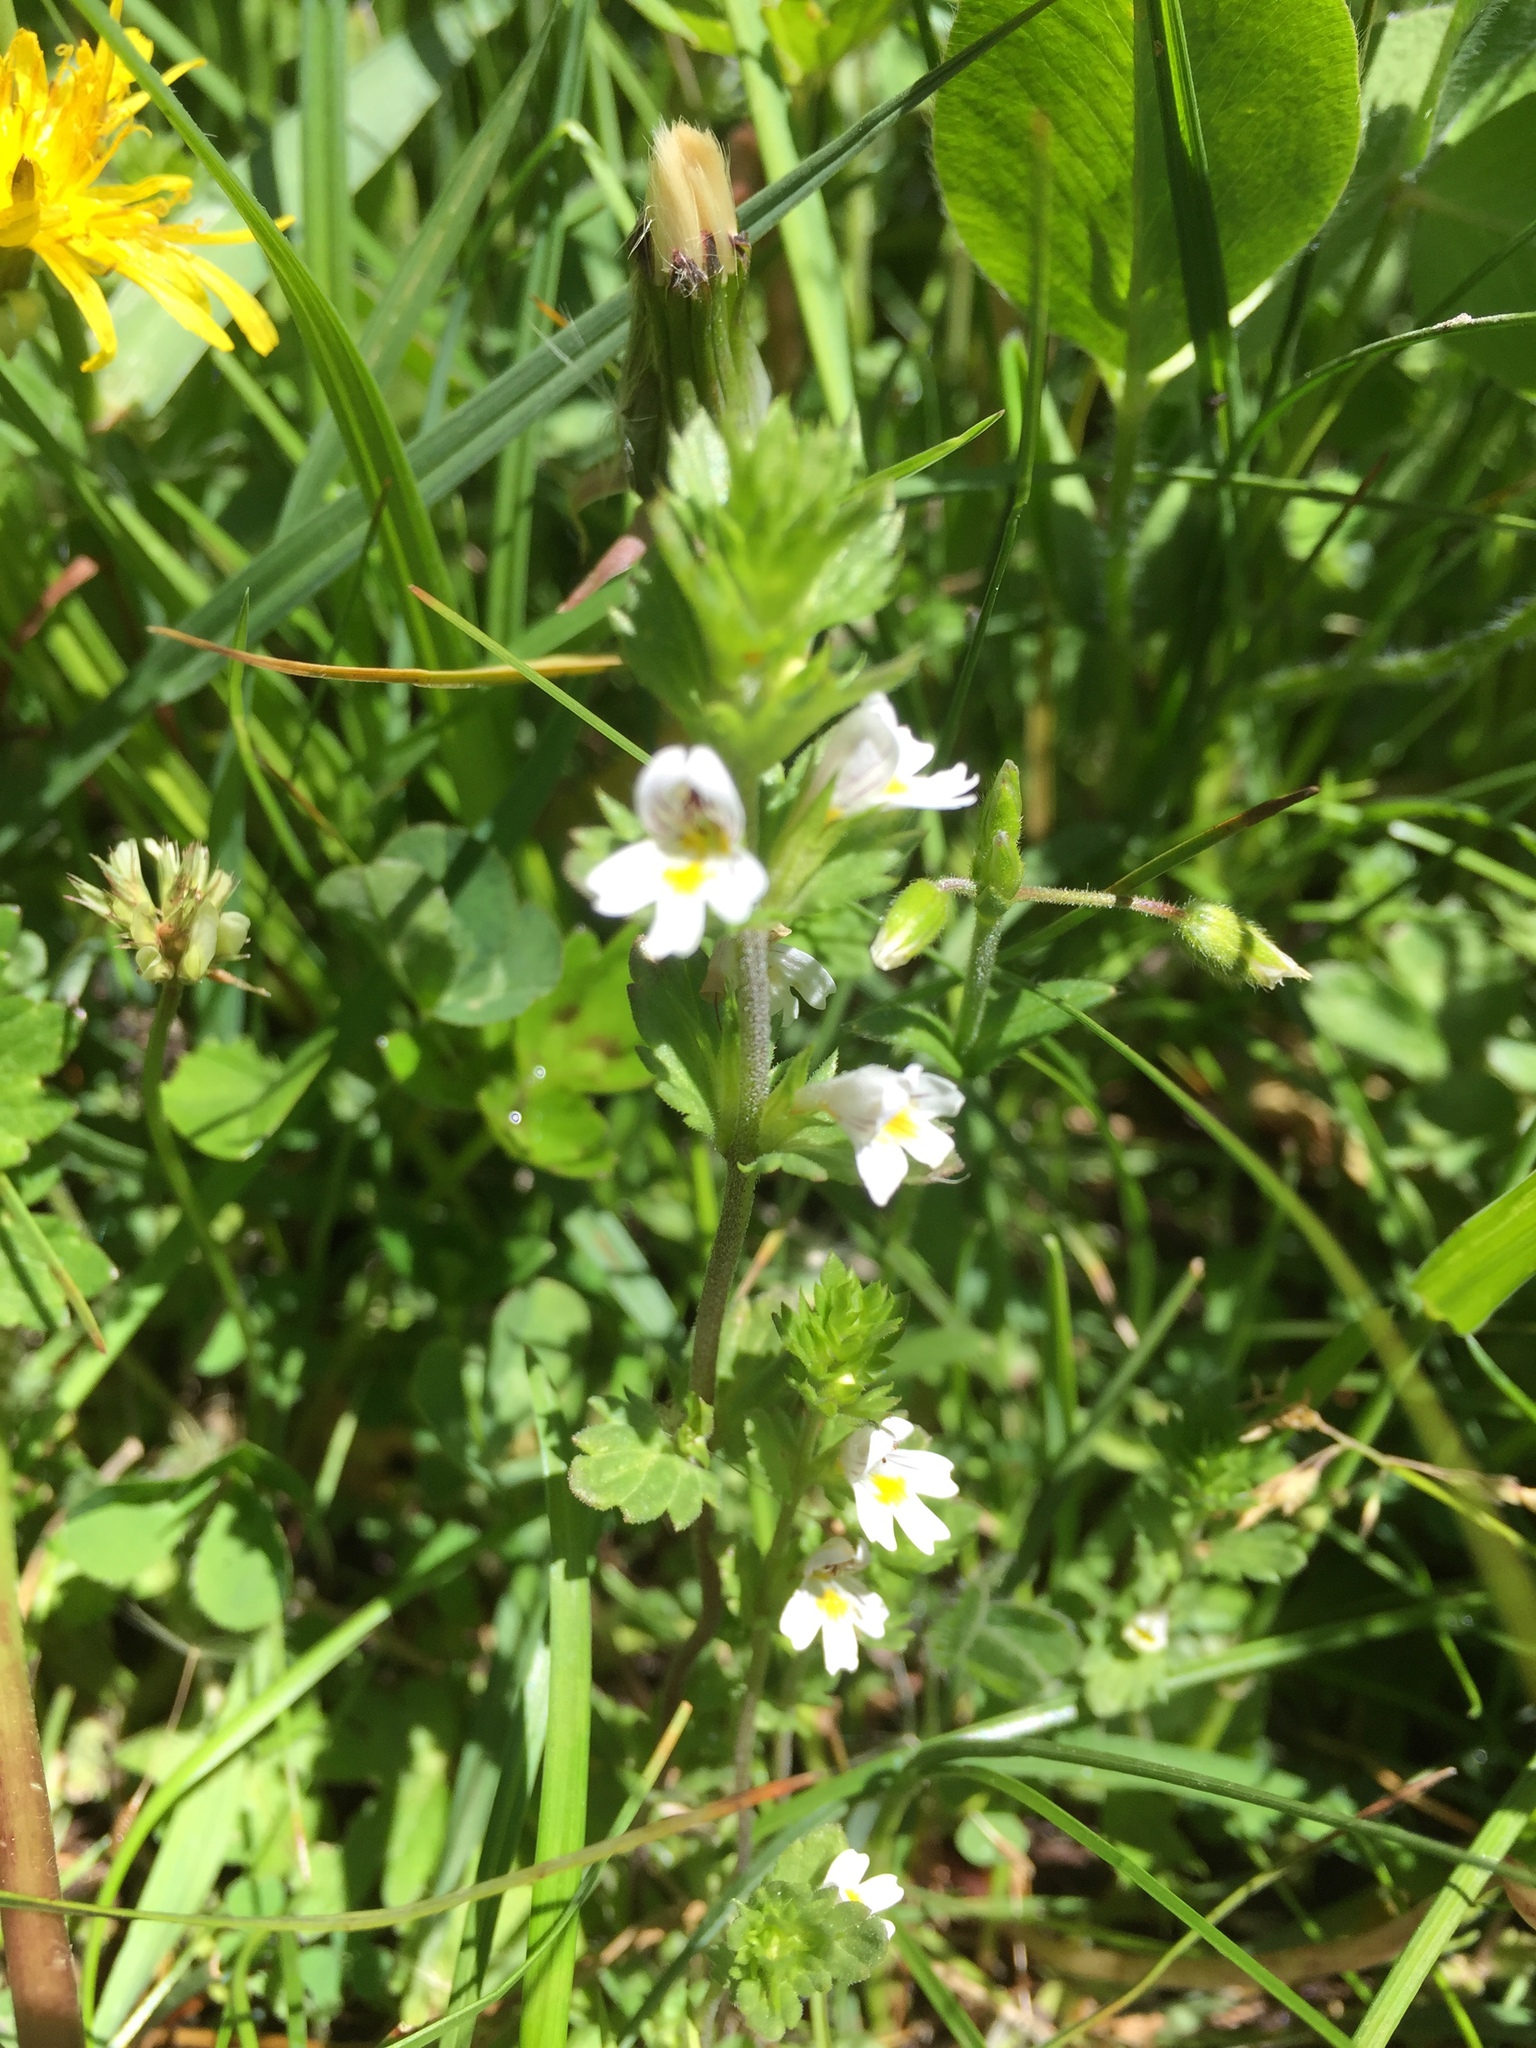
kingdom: Plantae
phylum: Tracheophyta
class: Magnoliopsida
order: Lamiales
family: Orobanchaceae
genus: Euphrasia
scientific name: Euphrasia nemorosa
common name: Common eyebright
